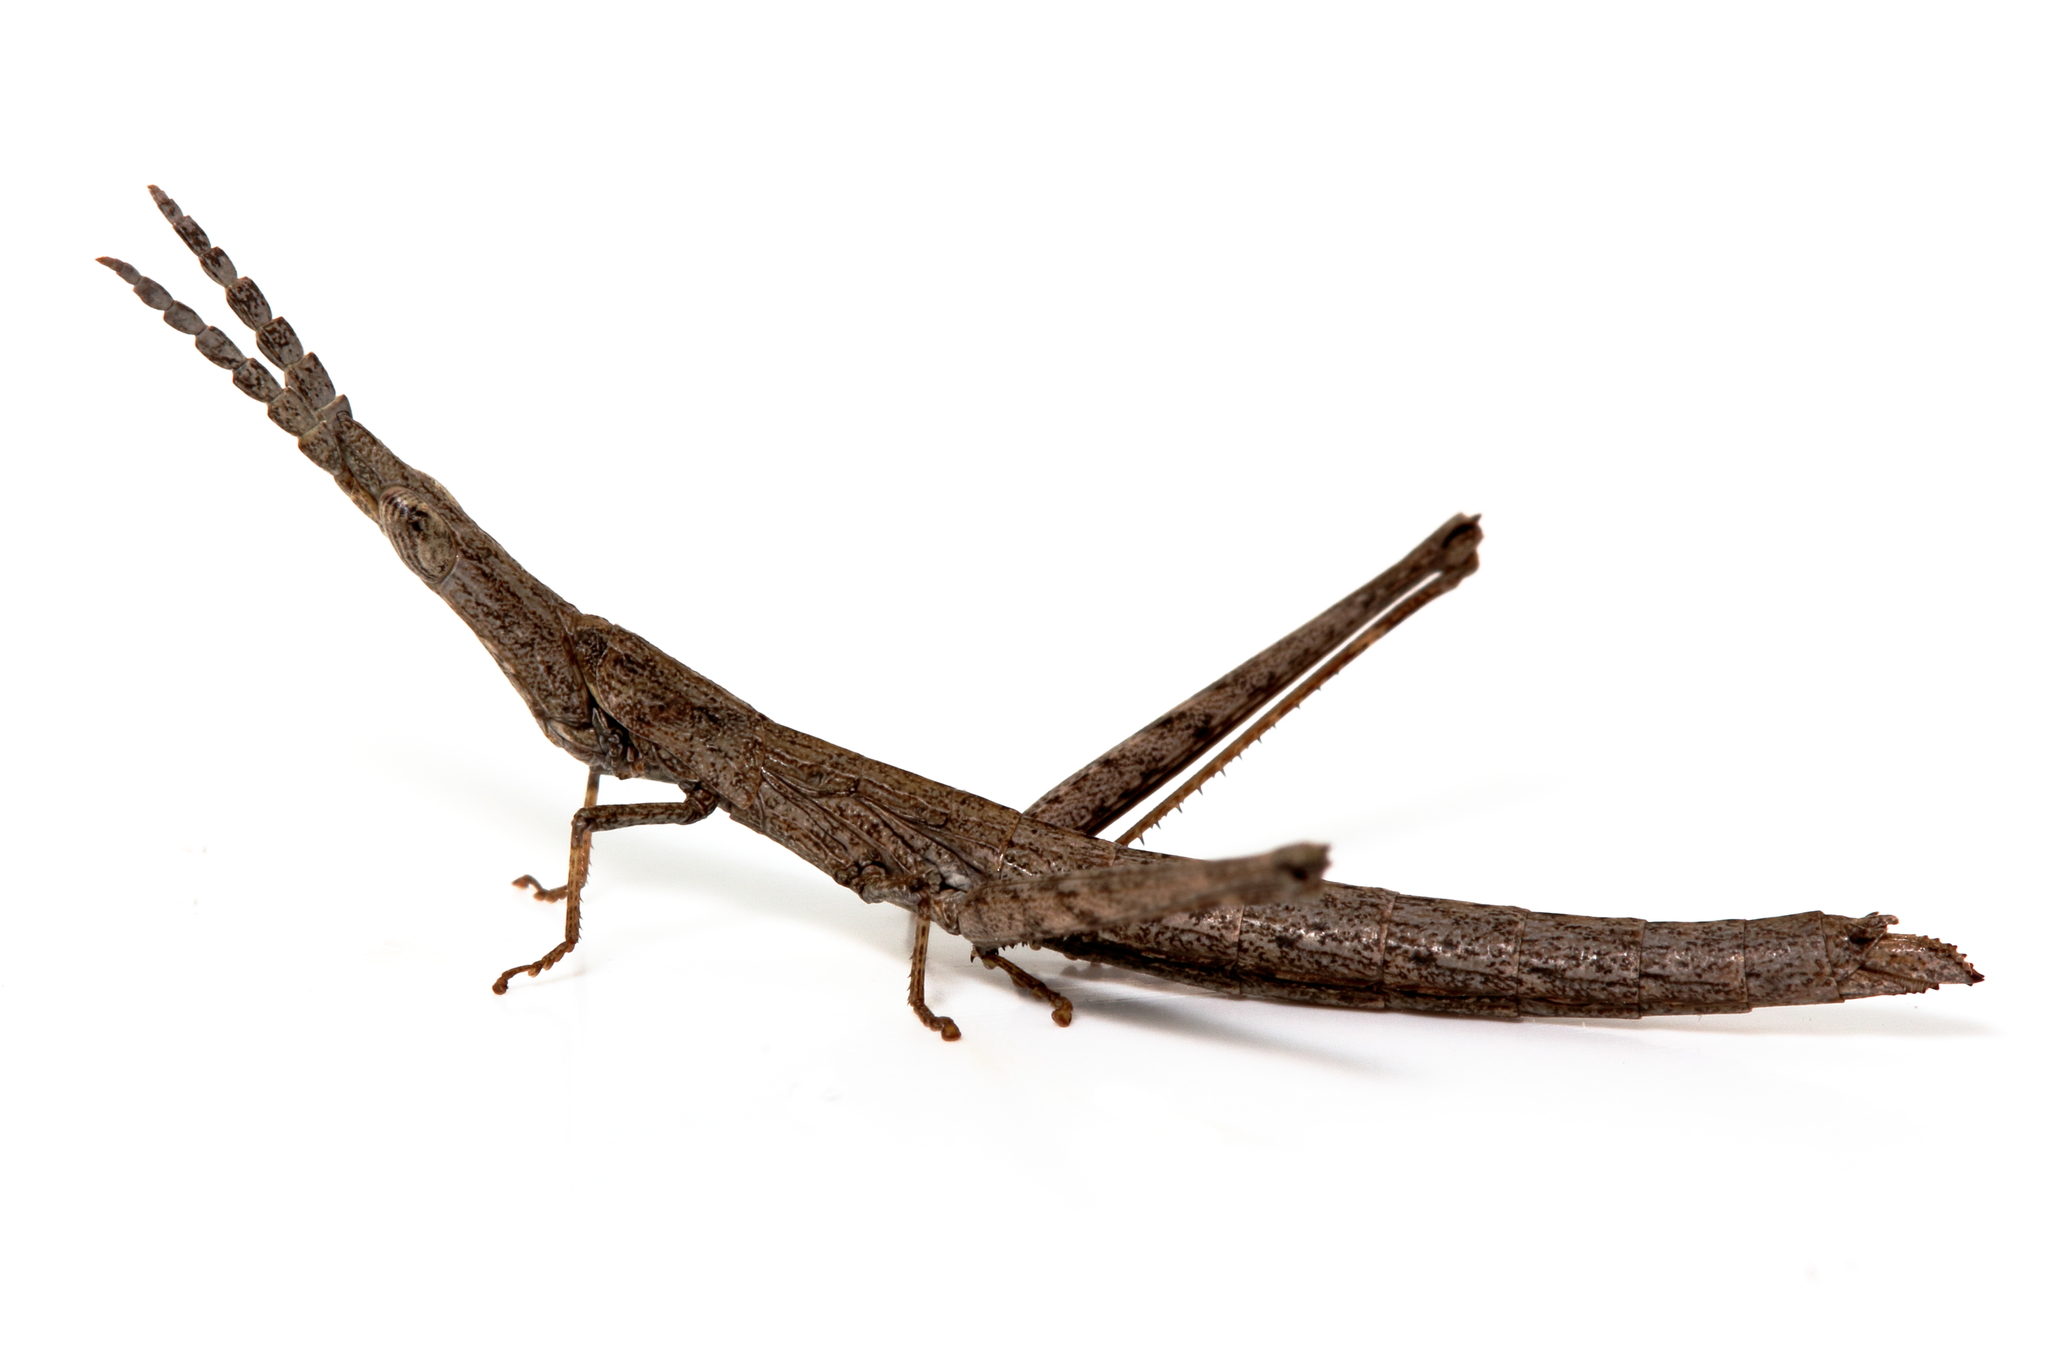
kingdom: Animalia
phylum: Arthropoda
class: Insecta
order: Orthoptera
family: Morabidae
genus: Vandiemenella
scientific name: Vandiemenella viatica
